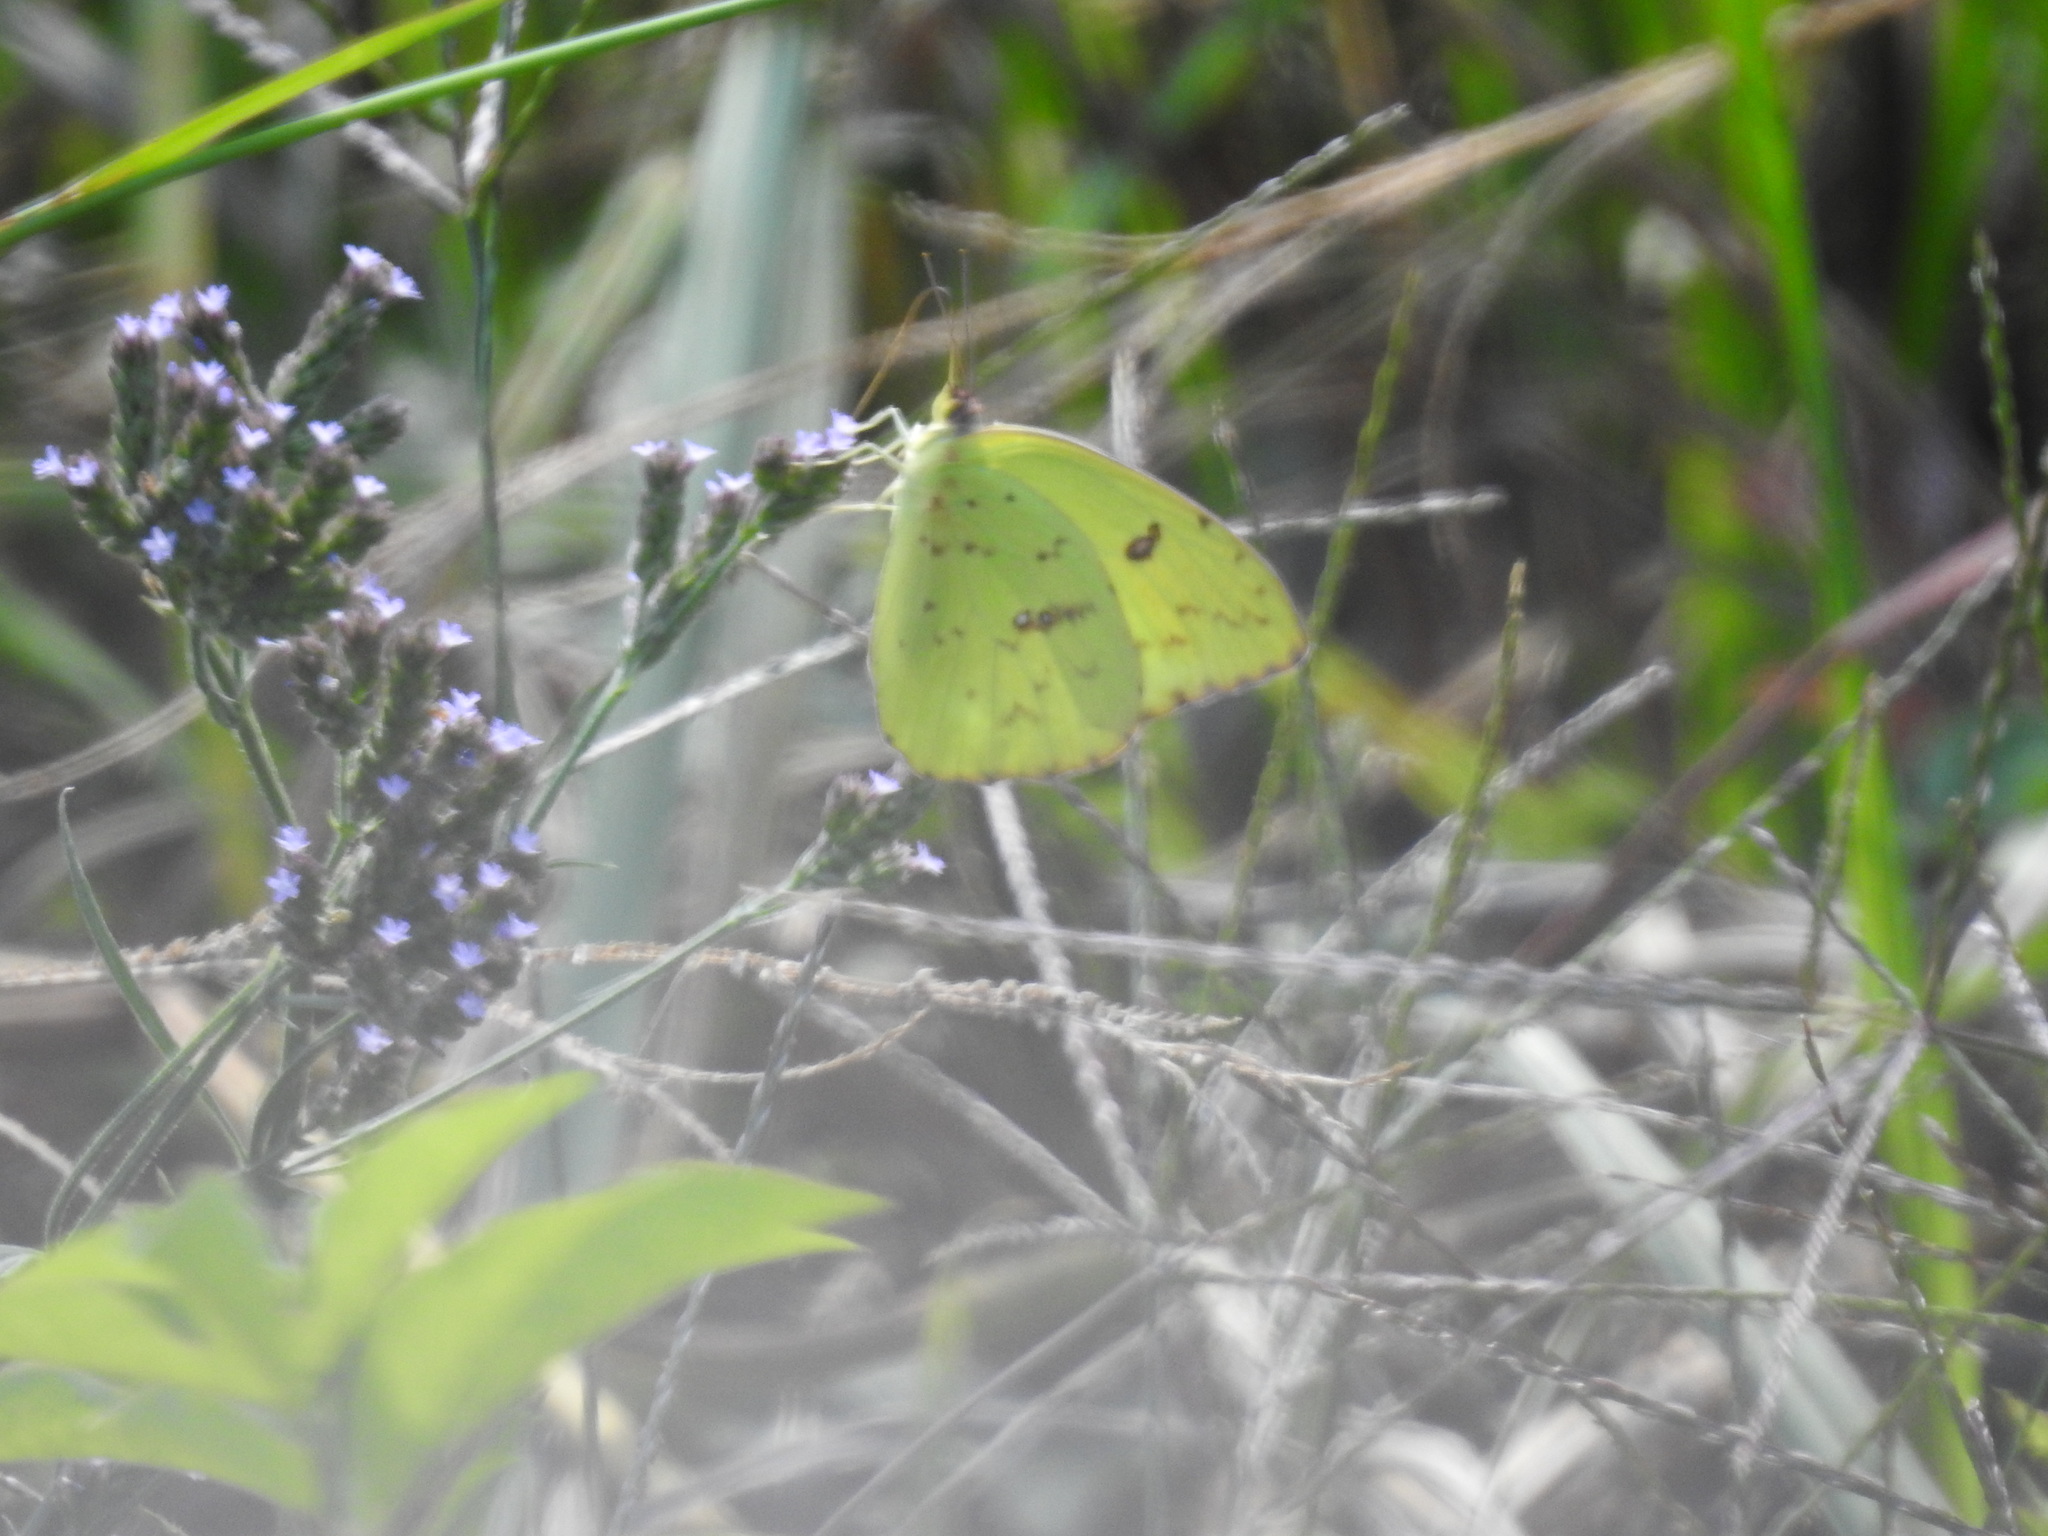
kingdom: Animalia
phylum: Arthropoda
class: Insecta
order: Lepidoptera
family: Pieridae
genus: Phoebis
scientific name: Phoebis sennae
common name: Cloudless sulphur
